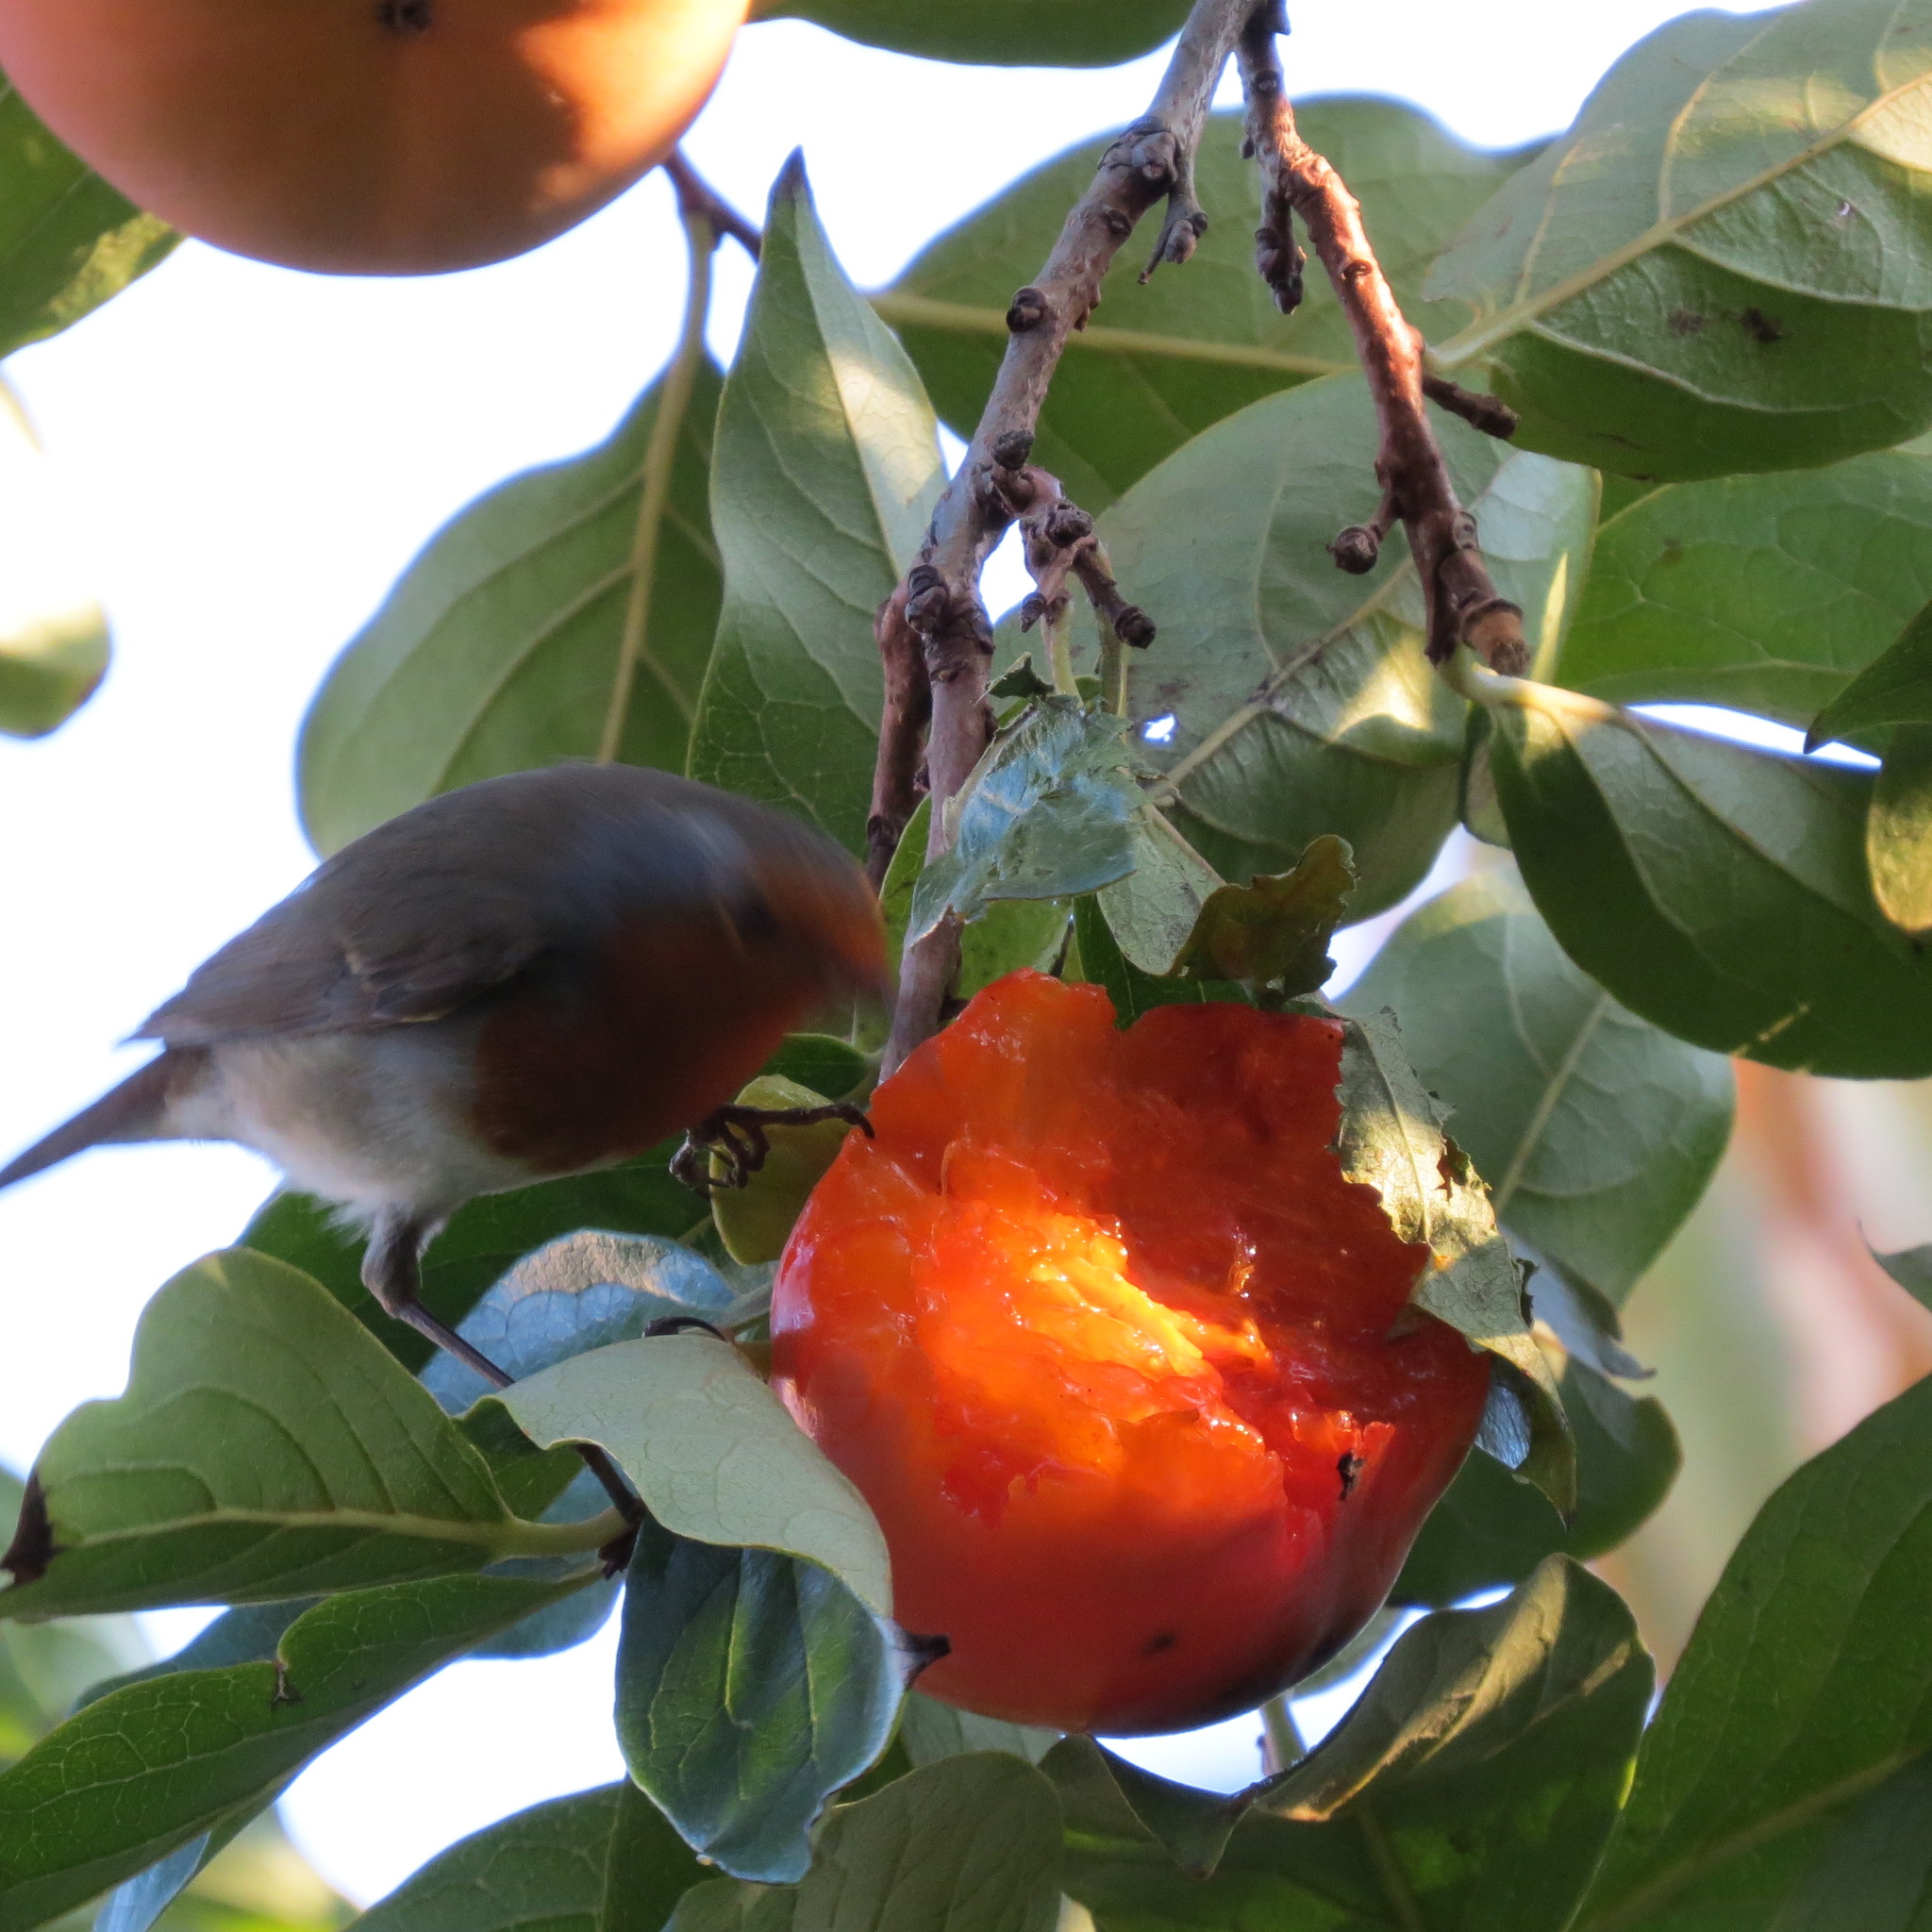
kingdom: Animalia
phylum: Chordata
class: Aves
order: Passeriformes
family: Muscicapidae
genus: Erithacus
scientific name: Erithacus rubecula
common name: European robin
